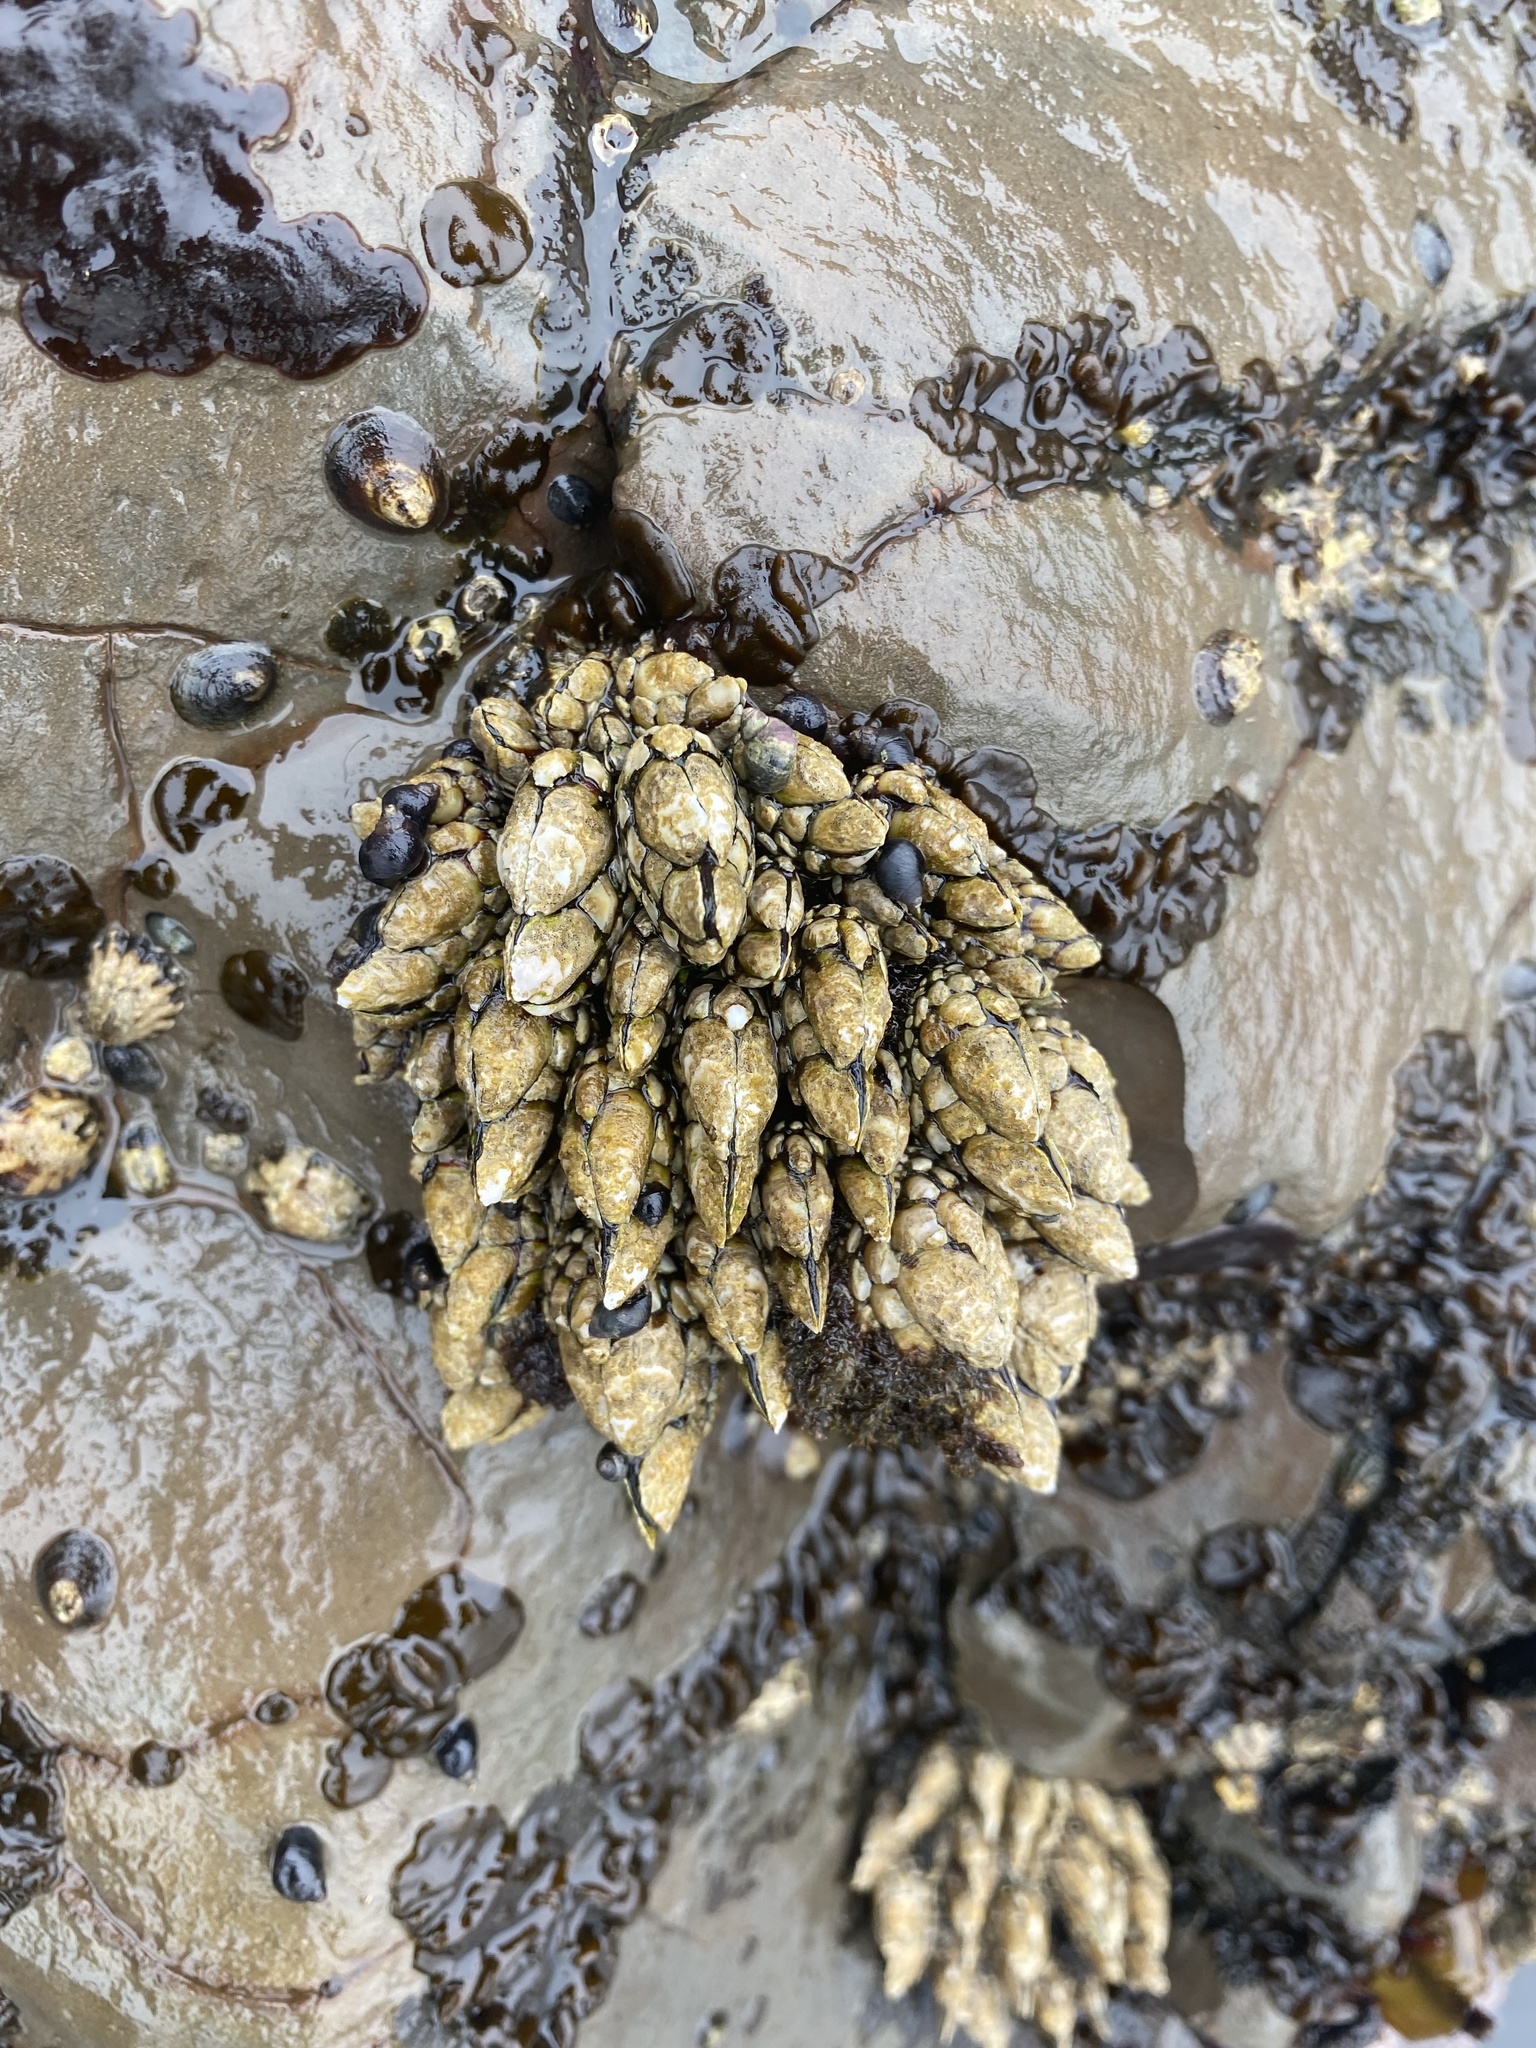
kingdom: Animalia
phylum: Arthropoda
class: Maxillopoda
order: Pedunculata
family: Pollicipedidae
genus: Pollicipes
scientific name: Pollicipes polymerus
